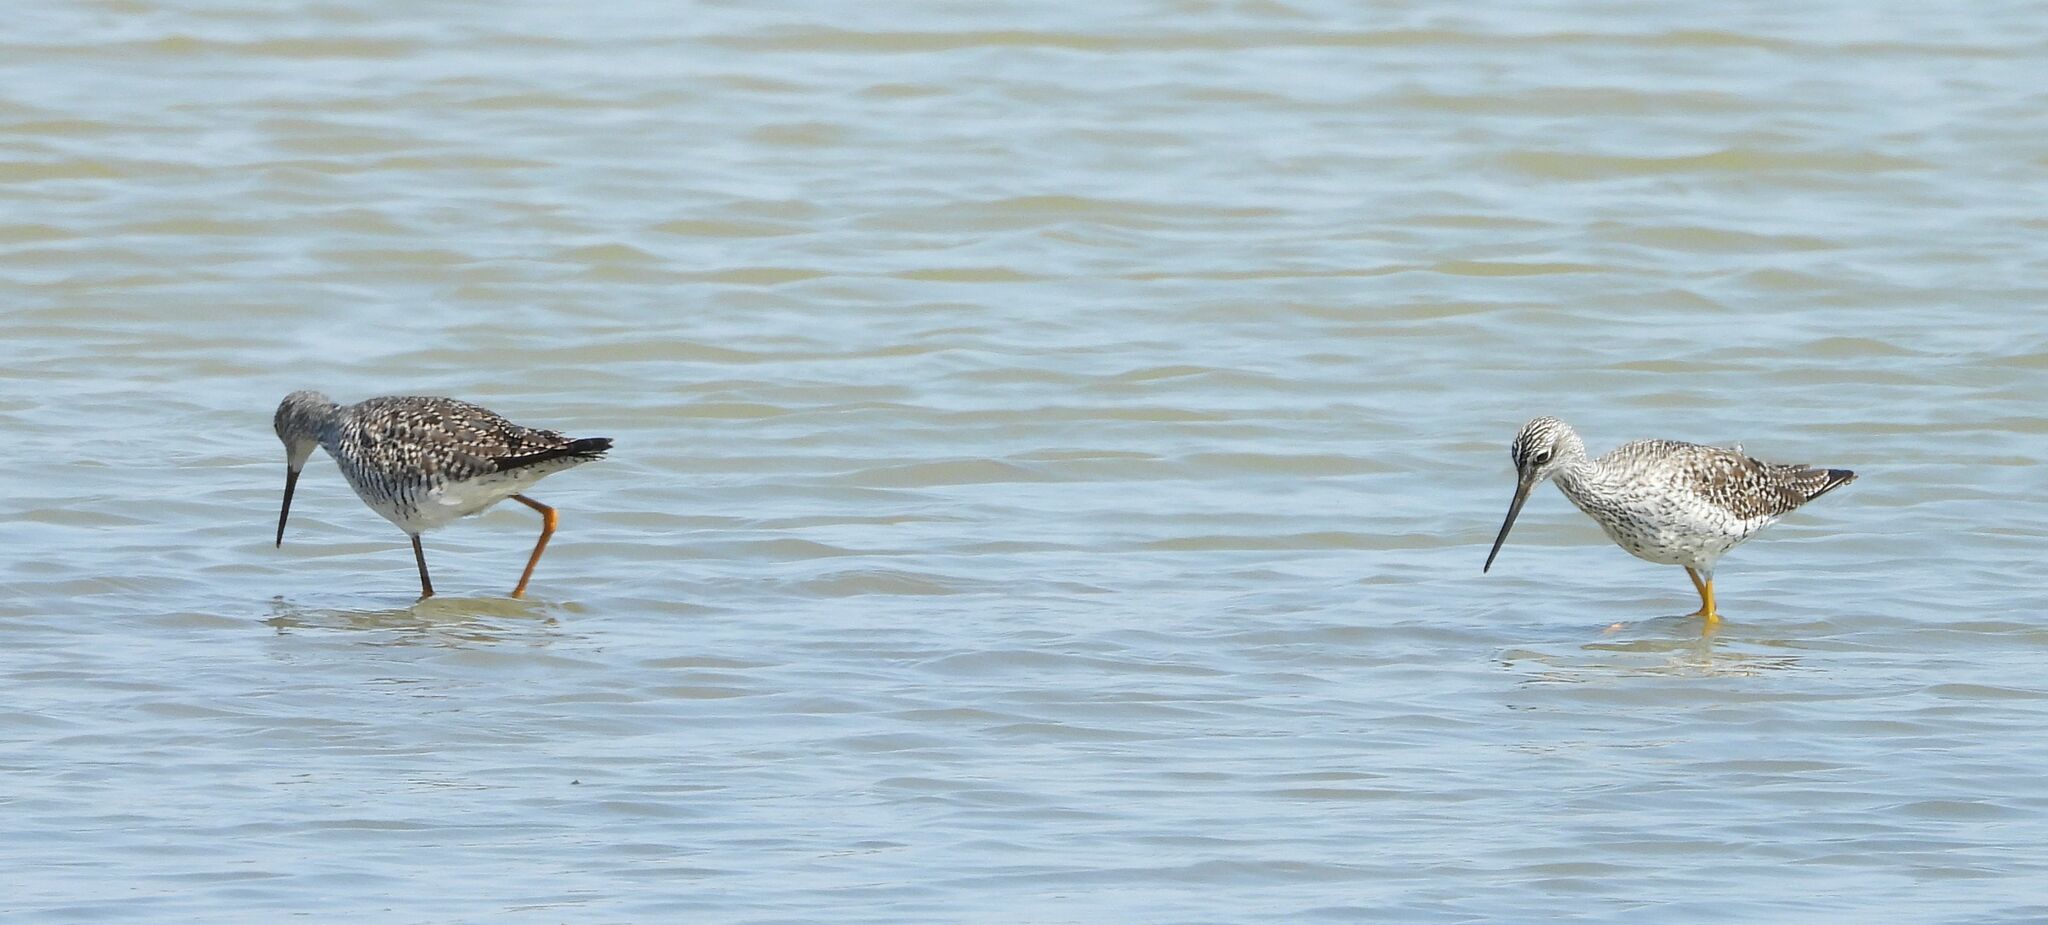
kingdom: Animalia
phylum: Chordata
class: Aves
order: Charadriiformes
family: Scolopacidae
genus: Tringa
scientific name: Tringa melanoleuca
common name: Greater yellowlegs
